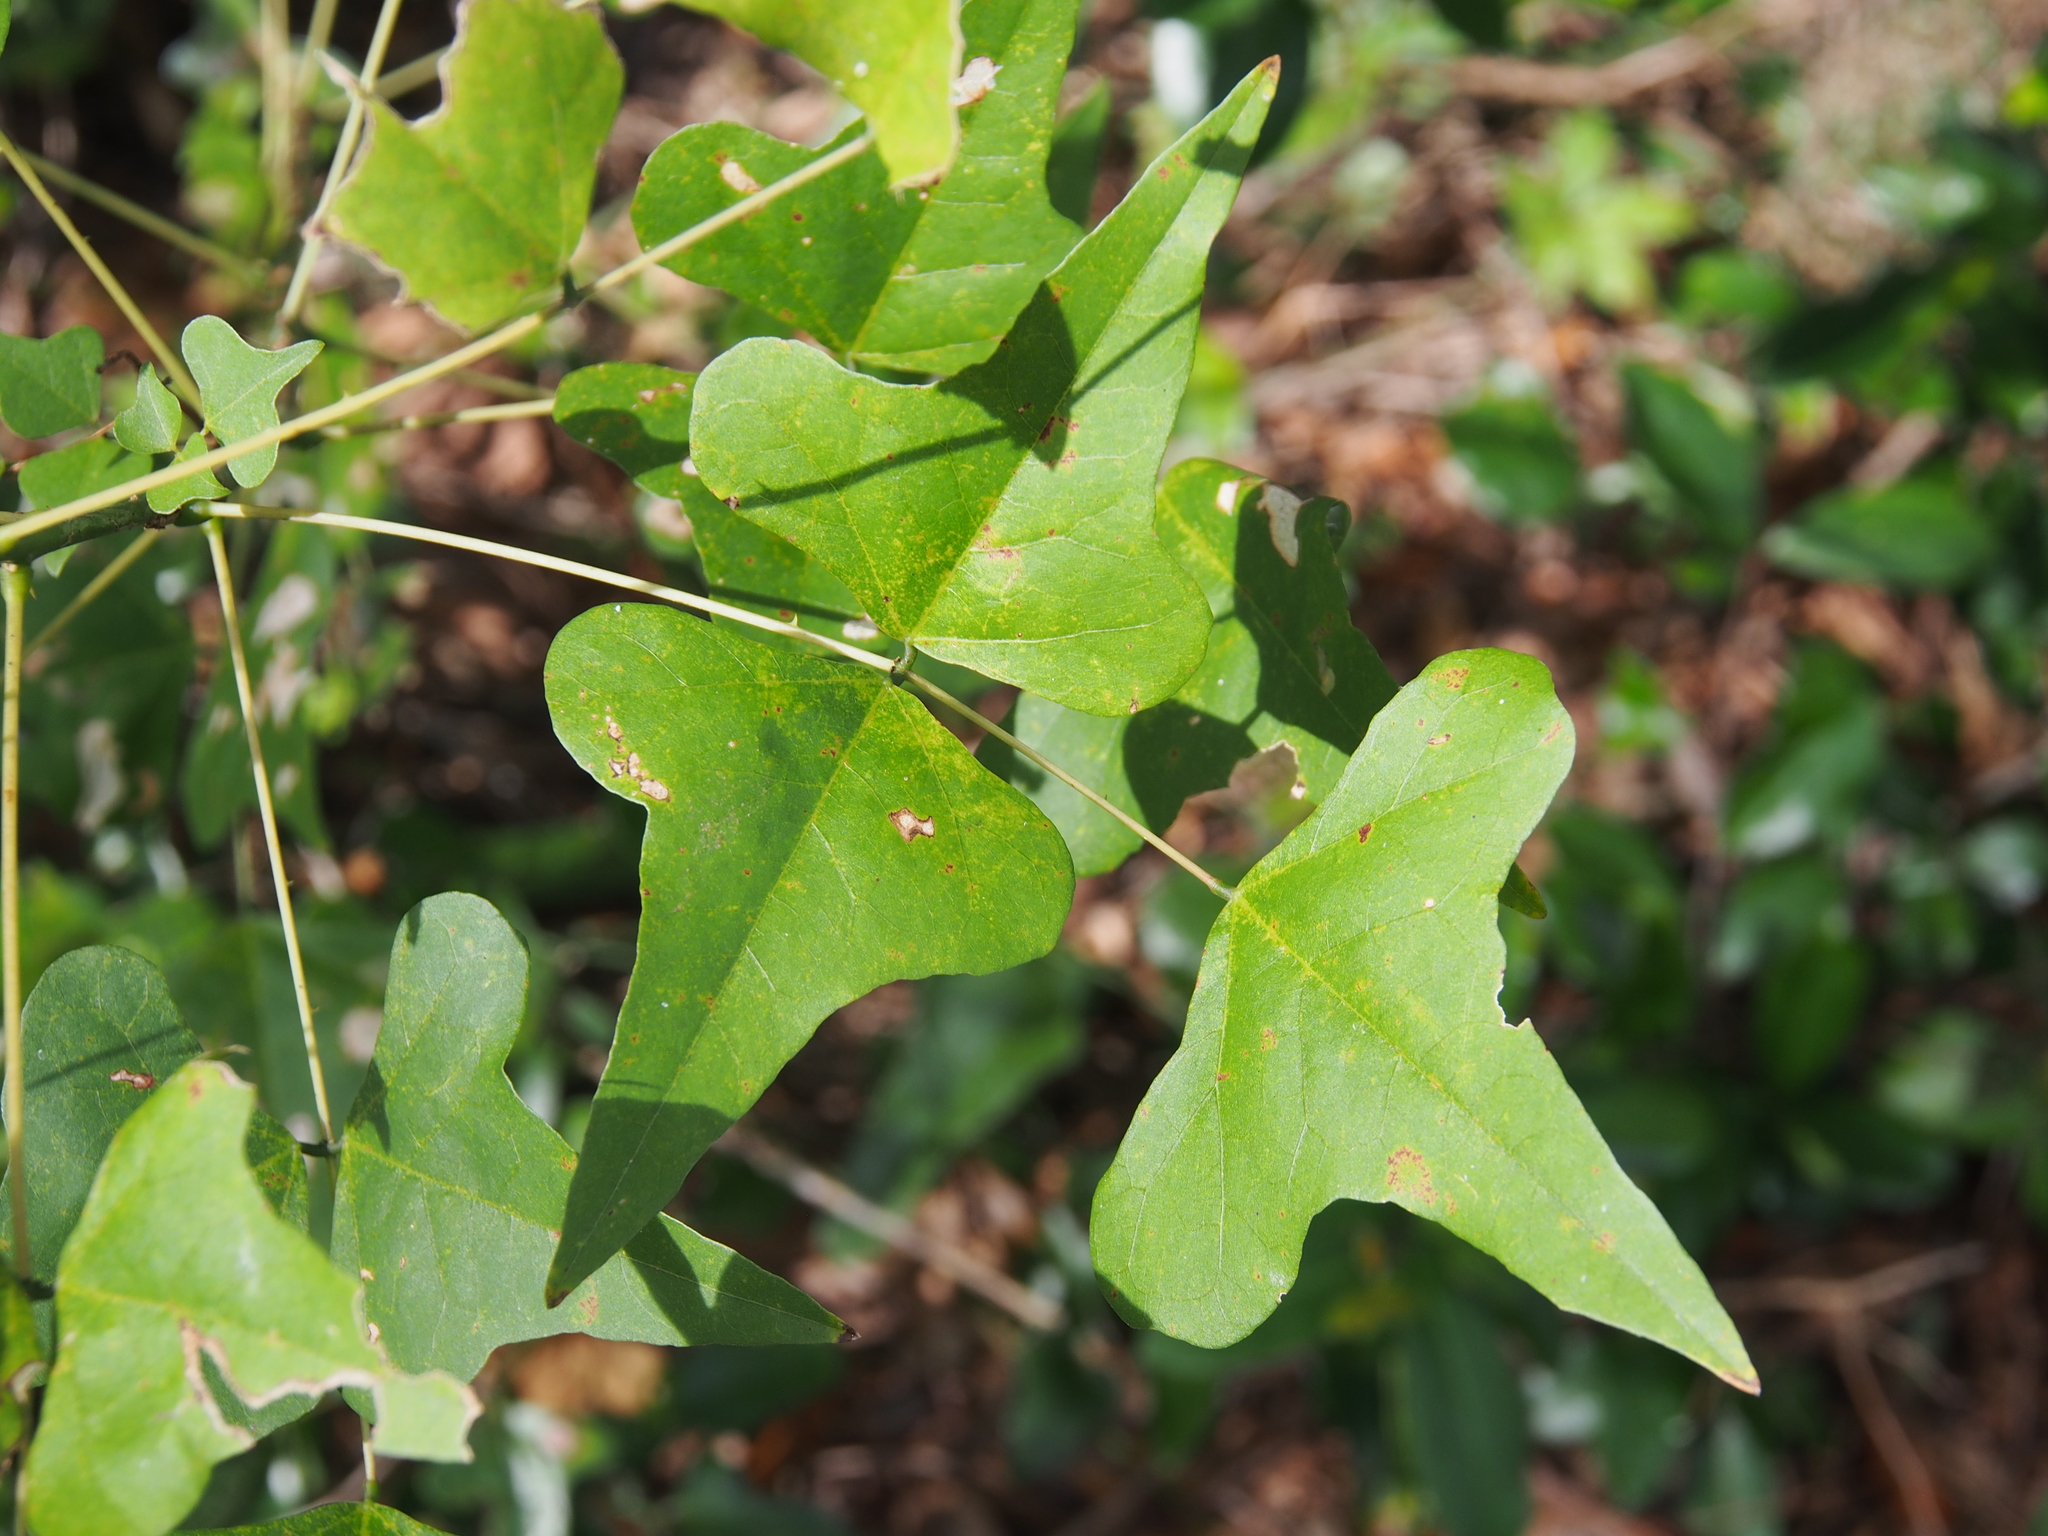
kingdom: Plantae
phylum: Tracheophyta
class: Magnoliopsida
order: Fabales
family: Fabaceae
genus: Erythrina
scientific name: Erythrina herbacea
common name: Coral-bean
